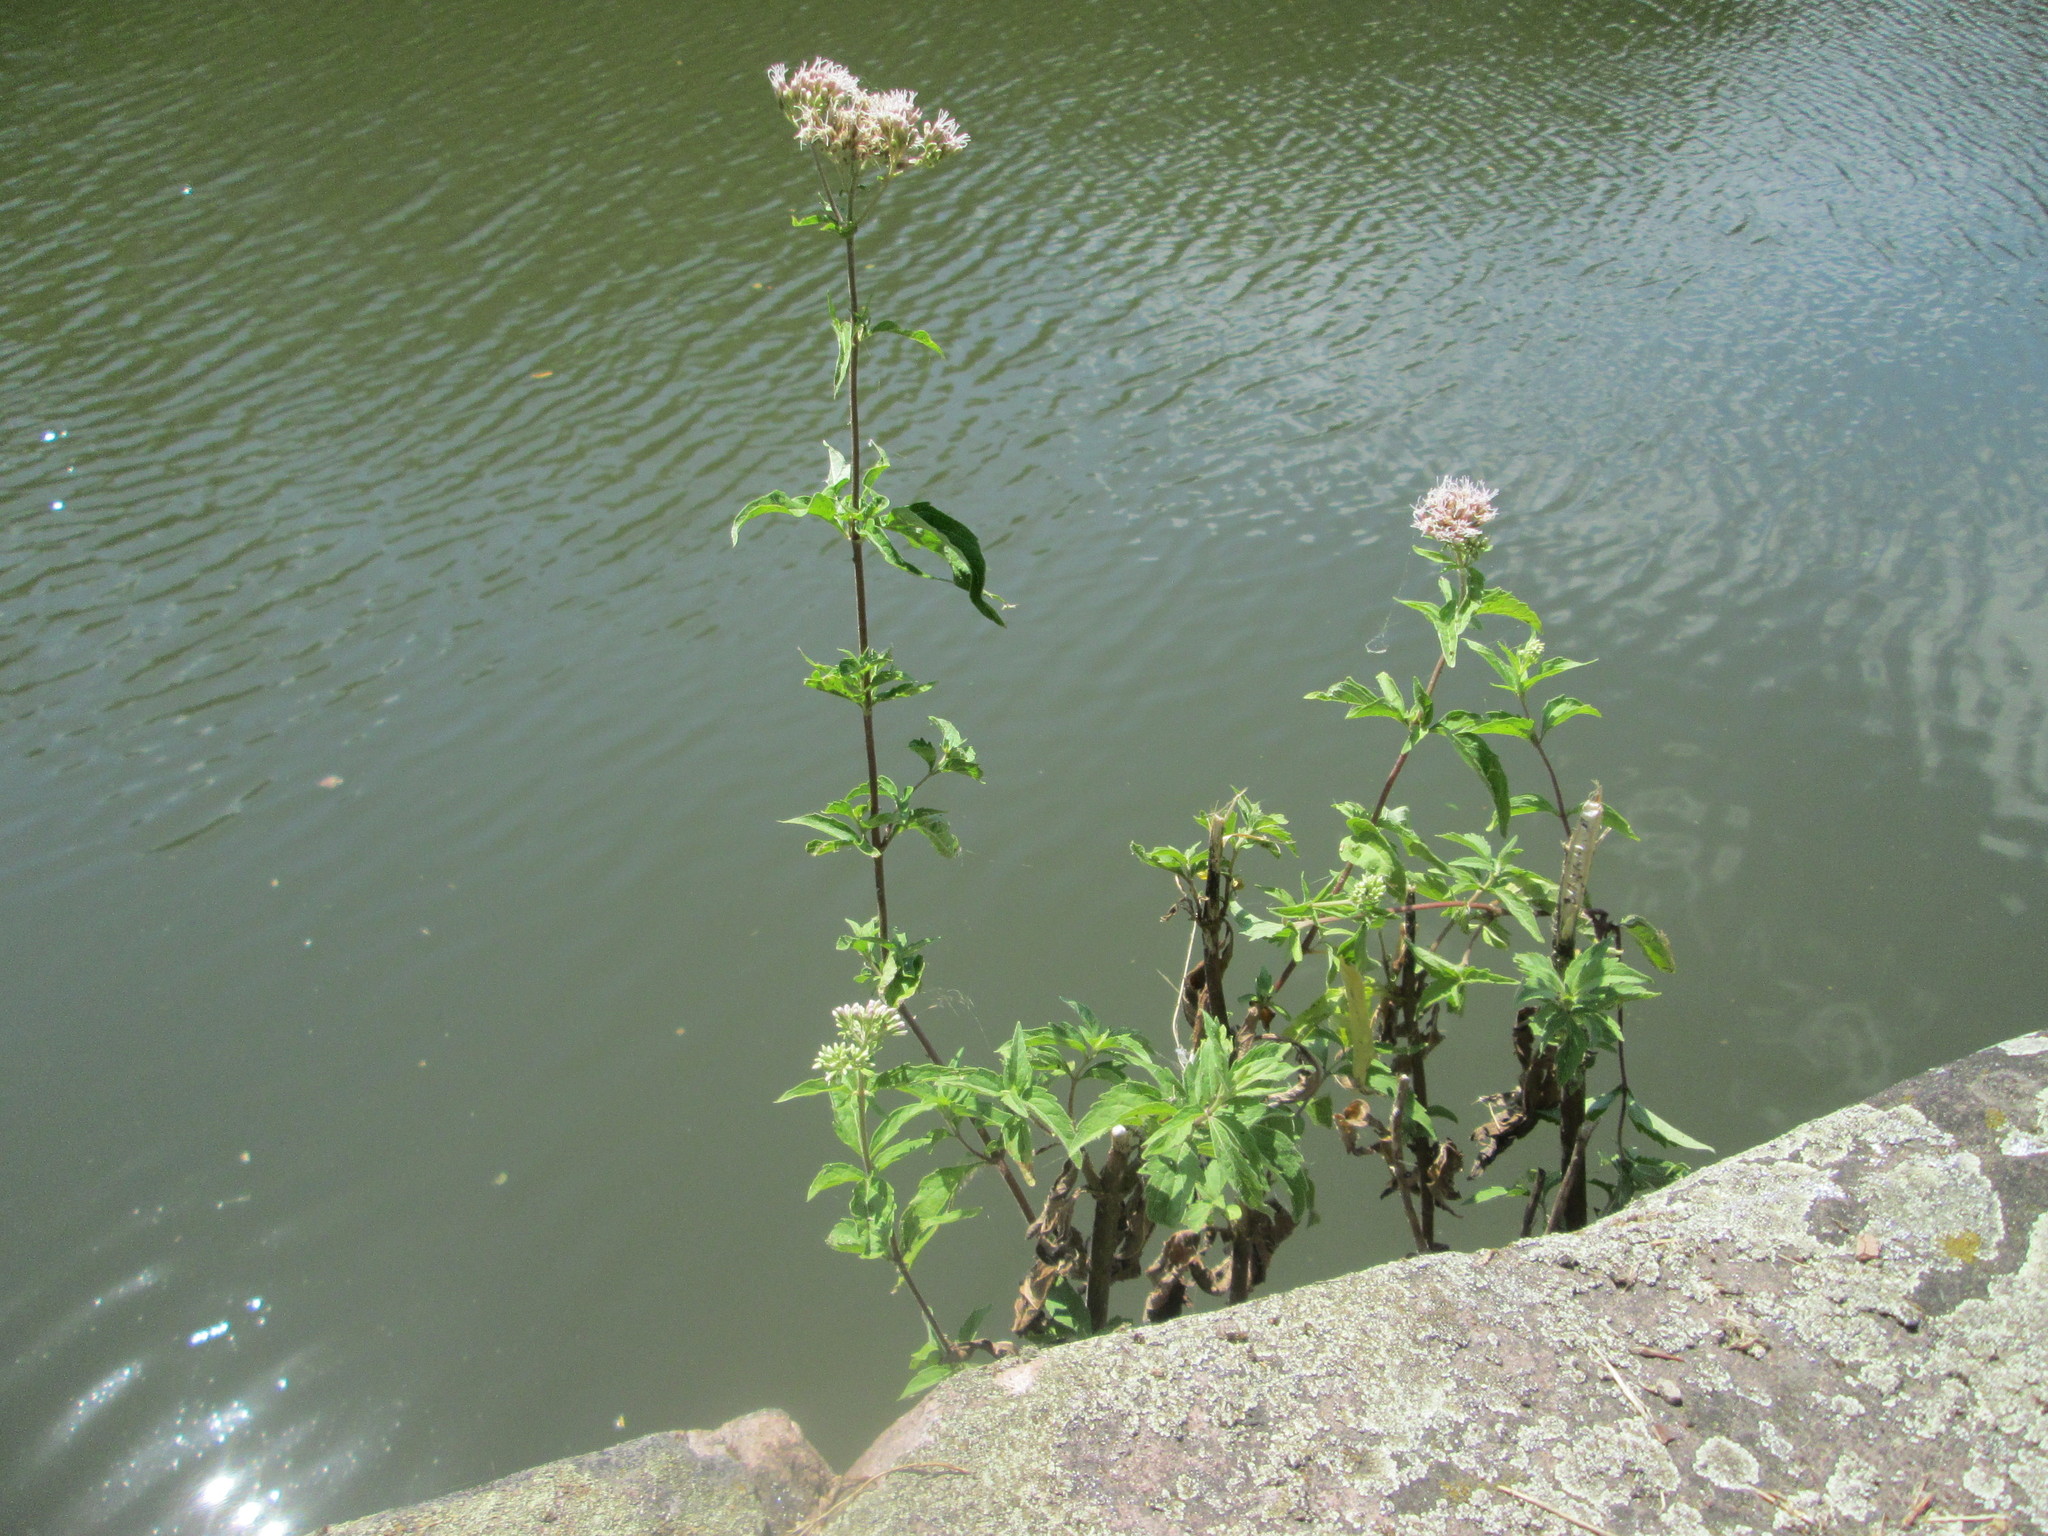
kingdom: Plantae
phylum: Tracheophyta
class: Magnoliopsida
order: Asterales
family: Asteraceae
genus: Eupatorium
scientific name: Eupatorium cannabinum
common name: Hemp-agrimony
